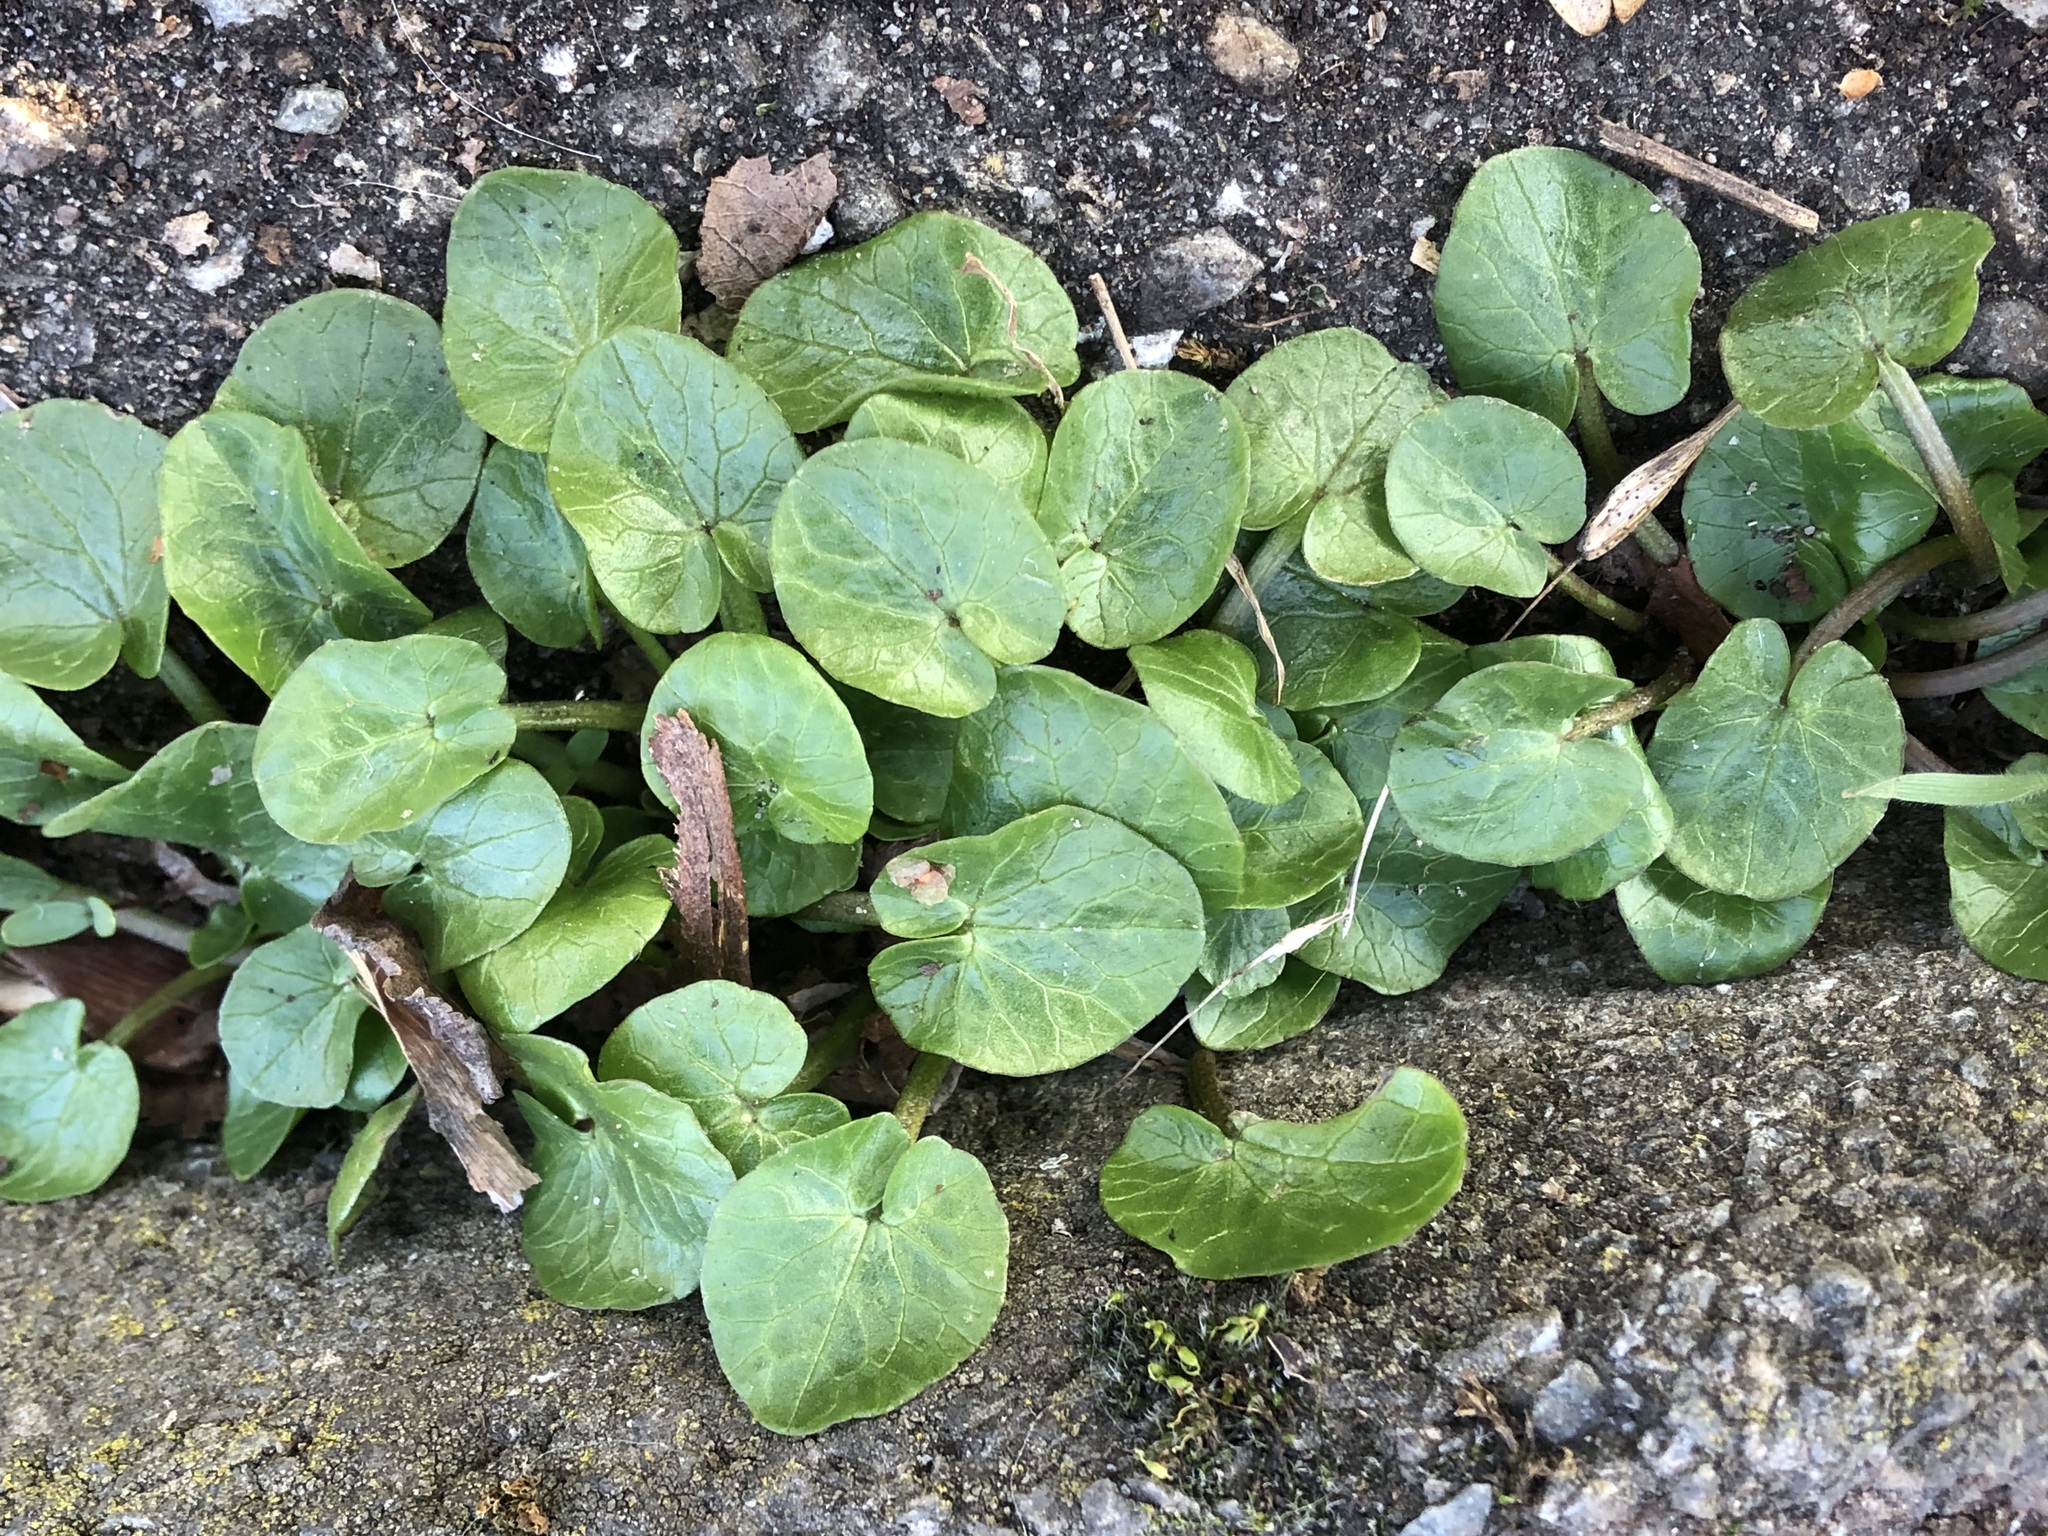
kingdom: Plantae
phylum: Tracheophyta
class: Magnoliopsida
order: Ranunculales
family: Ranunculaceae
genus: Ficaria
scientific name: Ficaria verna
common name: Lesser celandine
